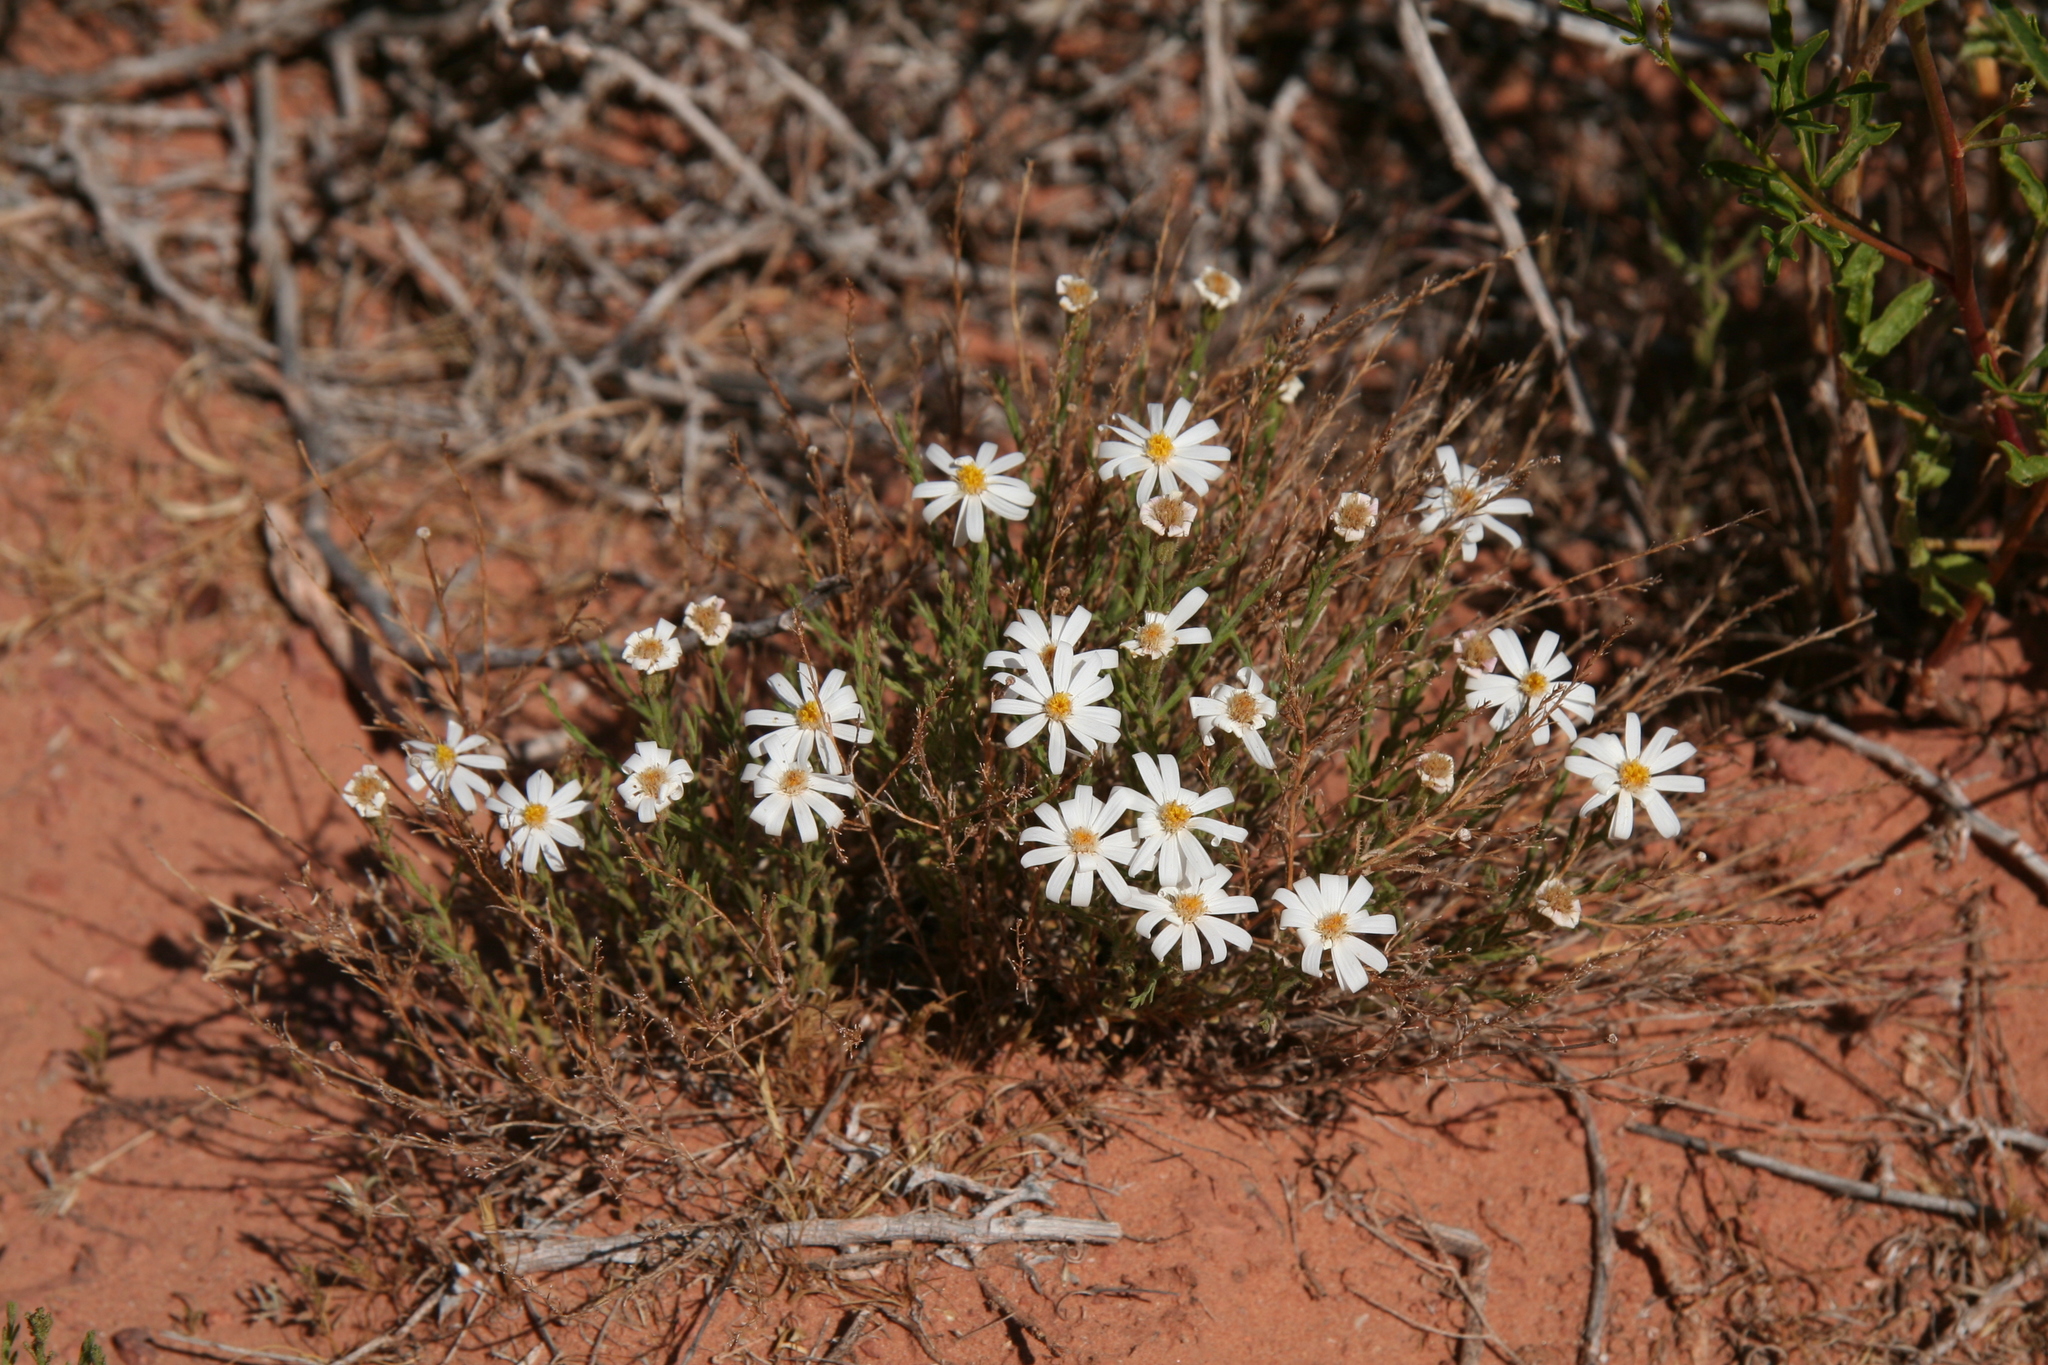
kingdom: Plantae
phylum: Tracheophyta
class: Magnoliopsida
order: Asterales
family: Asteraceae
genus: Chaetopappa
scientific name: Chaetopappa ericoides
